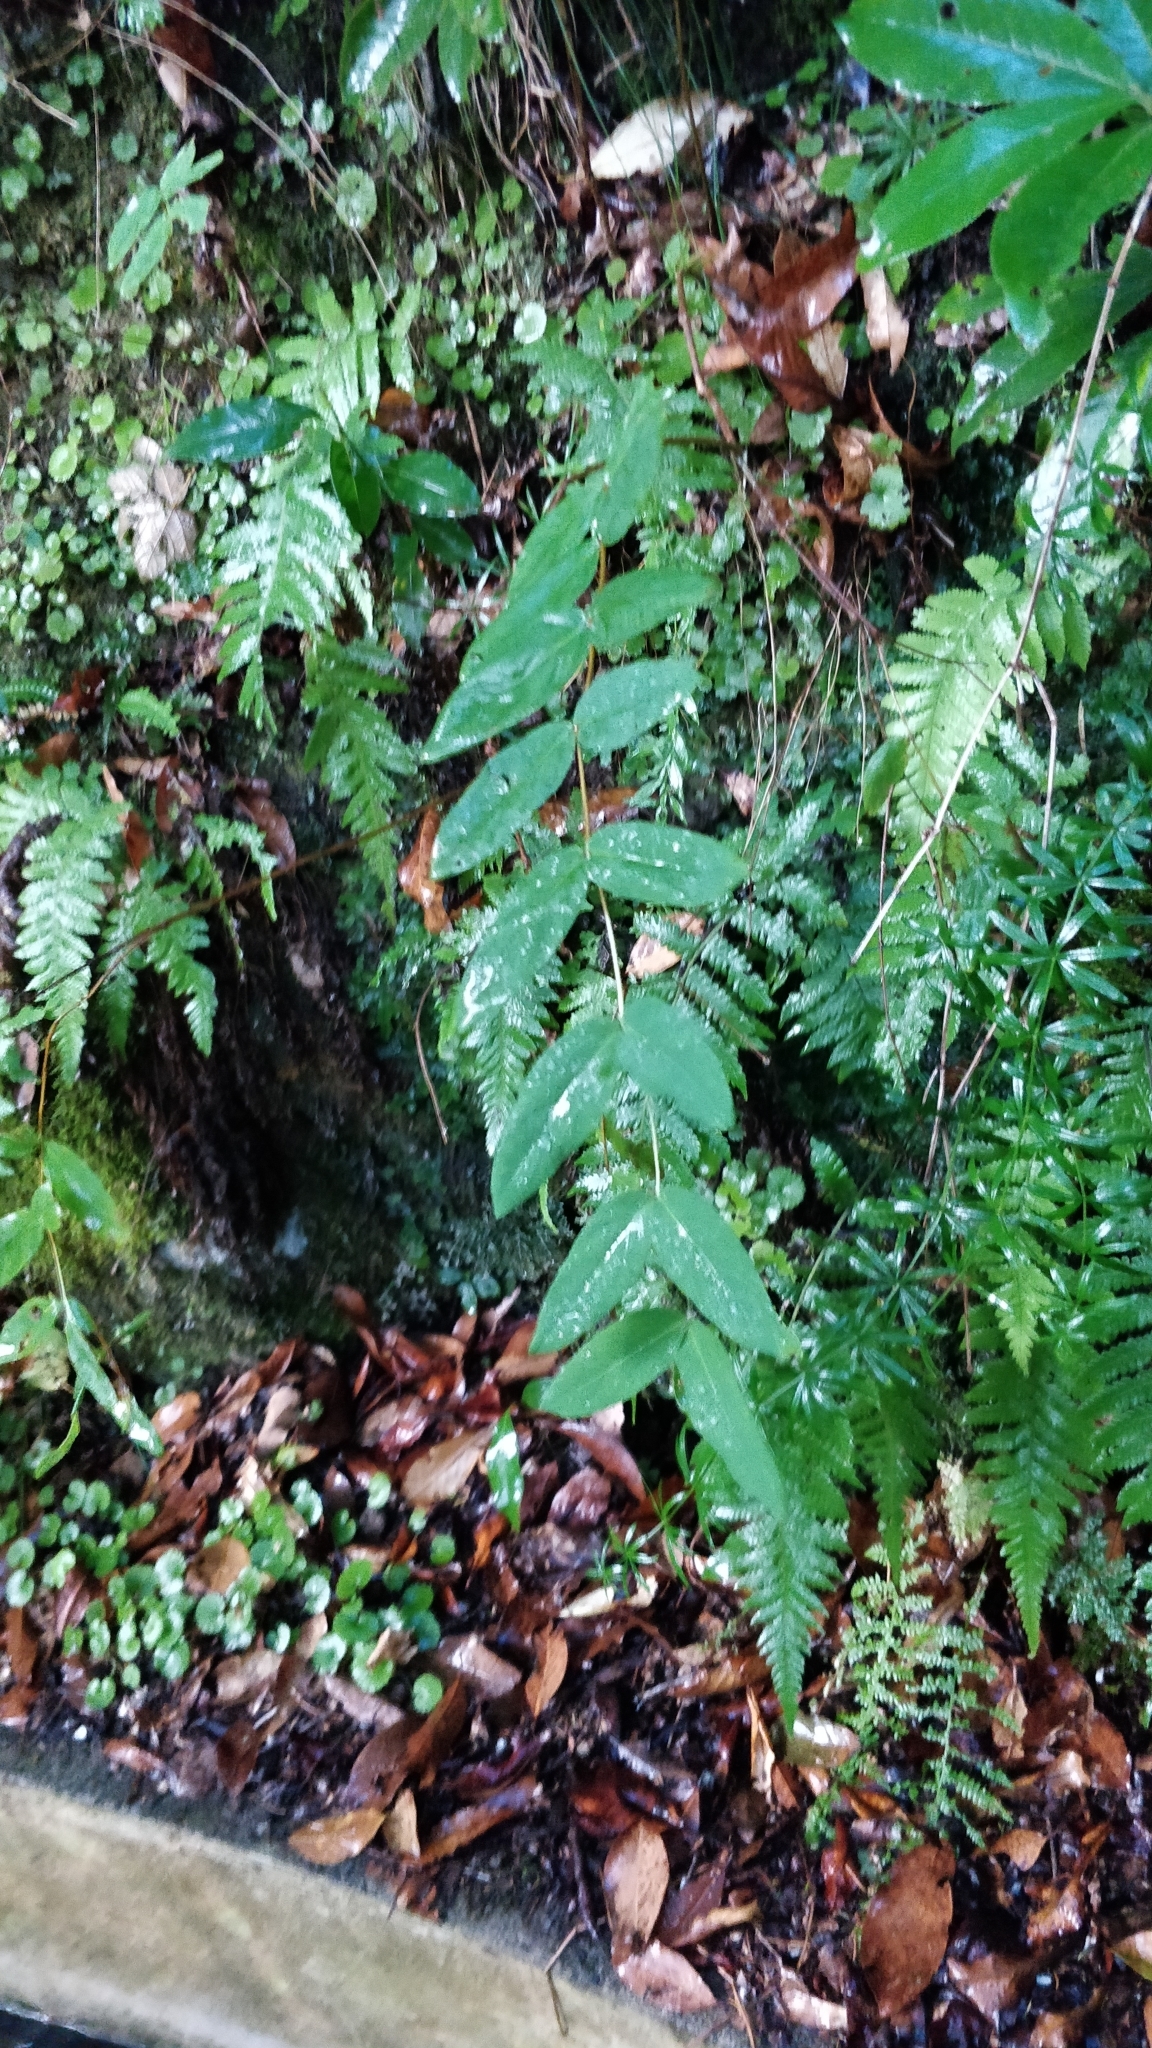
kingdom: Plantae
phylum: Tracheophyta
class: Magnoliopsida
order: Malpighiales
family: Hypericaceae
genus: Hypericum
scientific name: Hypericum grandifolium
